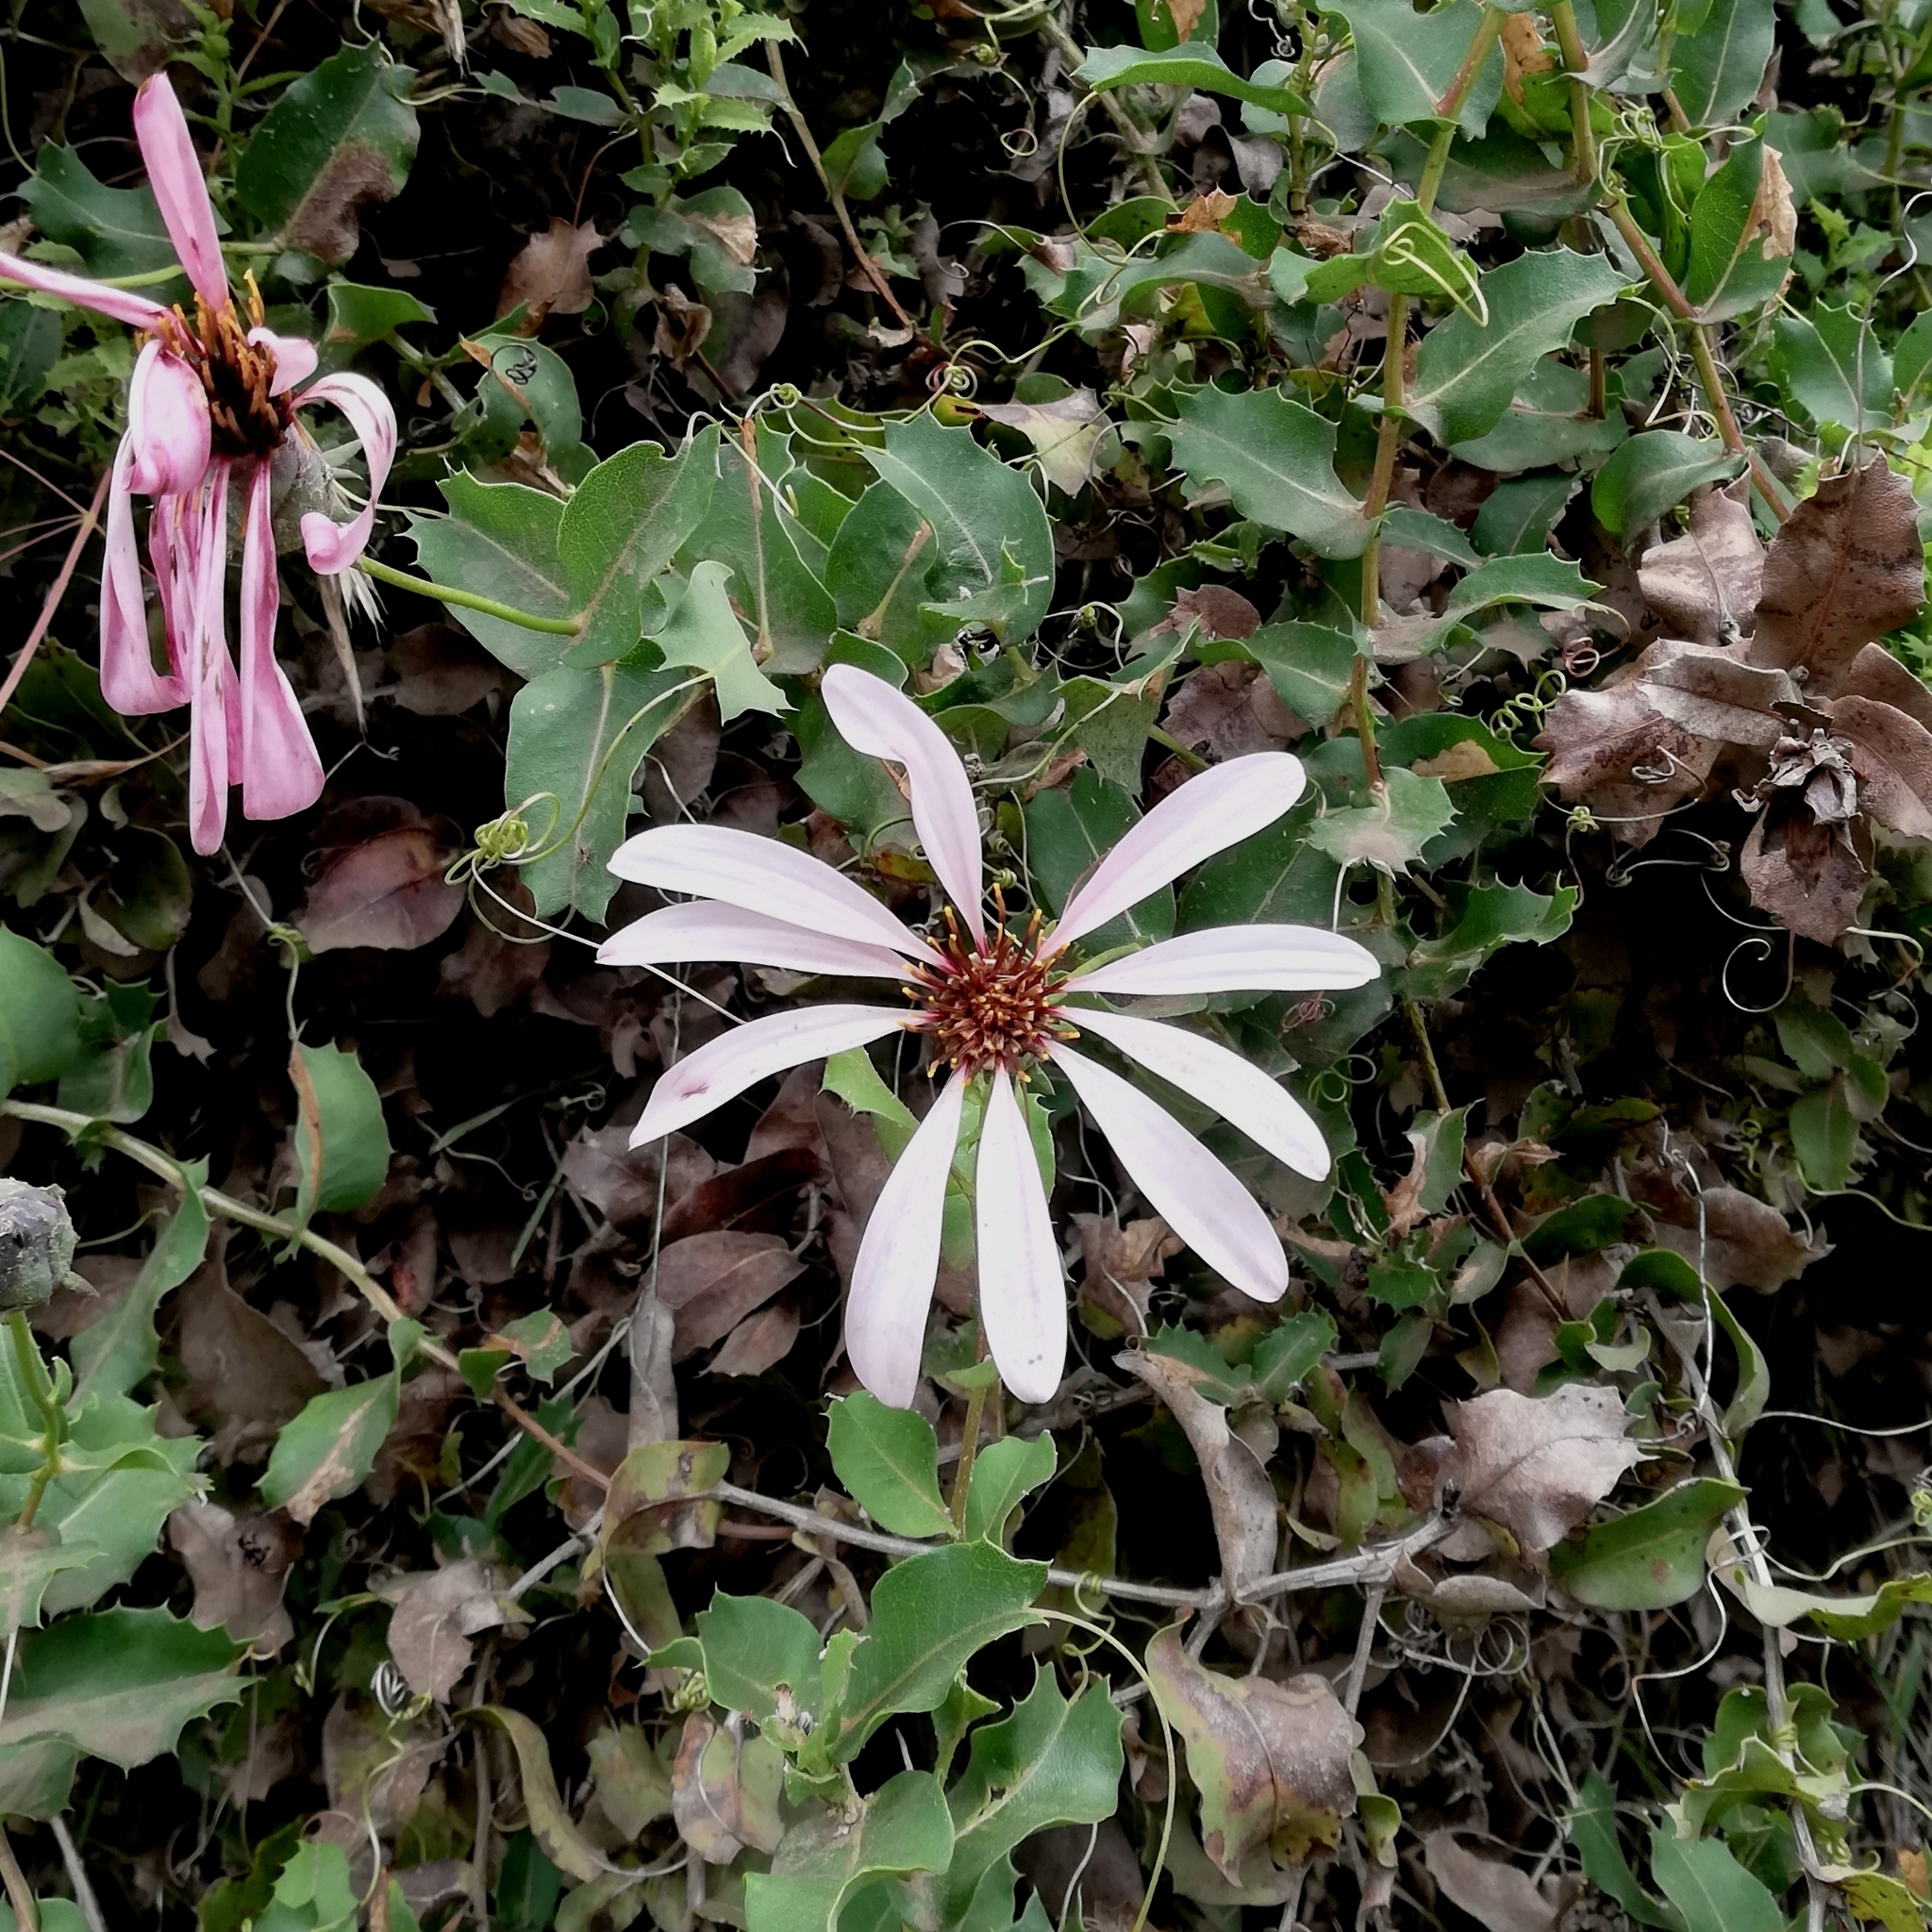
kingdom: Plantae
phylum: Tracheophyta
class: Magnoliopsida
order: Asterales
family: Asteraceae
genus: Mutisia
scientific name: Mutisia ilicifolia
